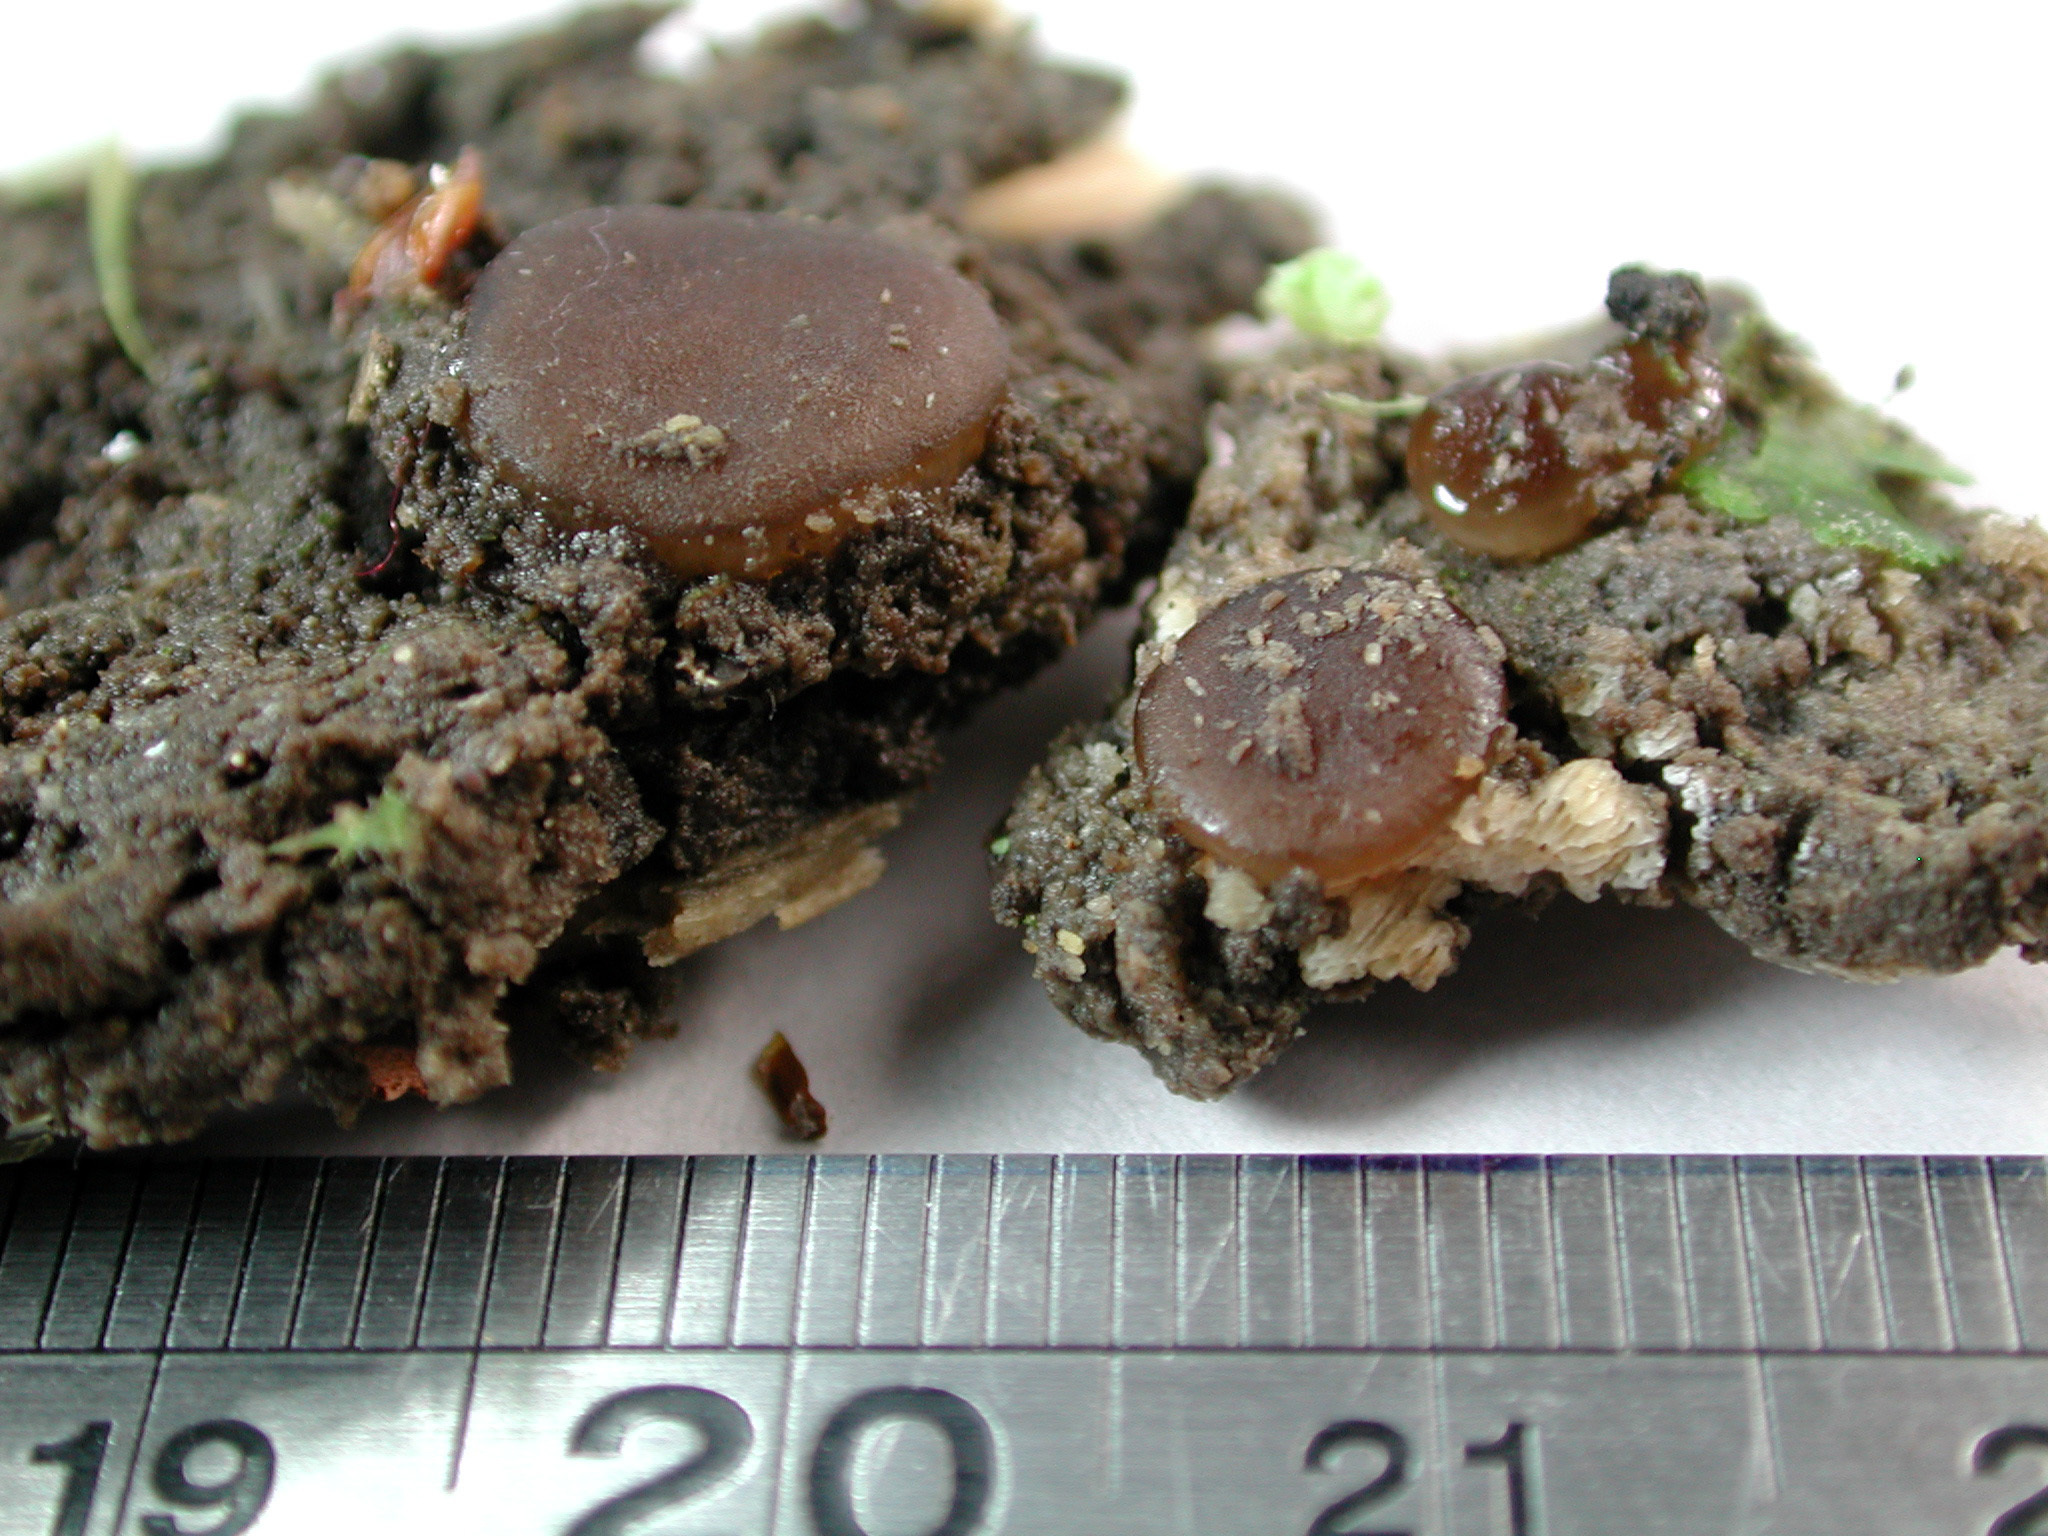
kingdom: Fungi
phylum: Ascomycota
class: Pezizomycetes
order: Pezizales
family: Pezizaceae
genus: Adelphella
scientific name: Adelphella babingtonii
